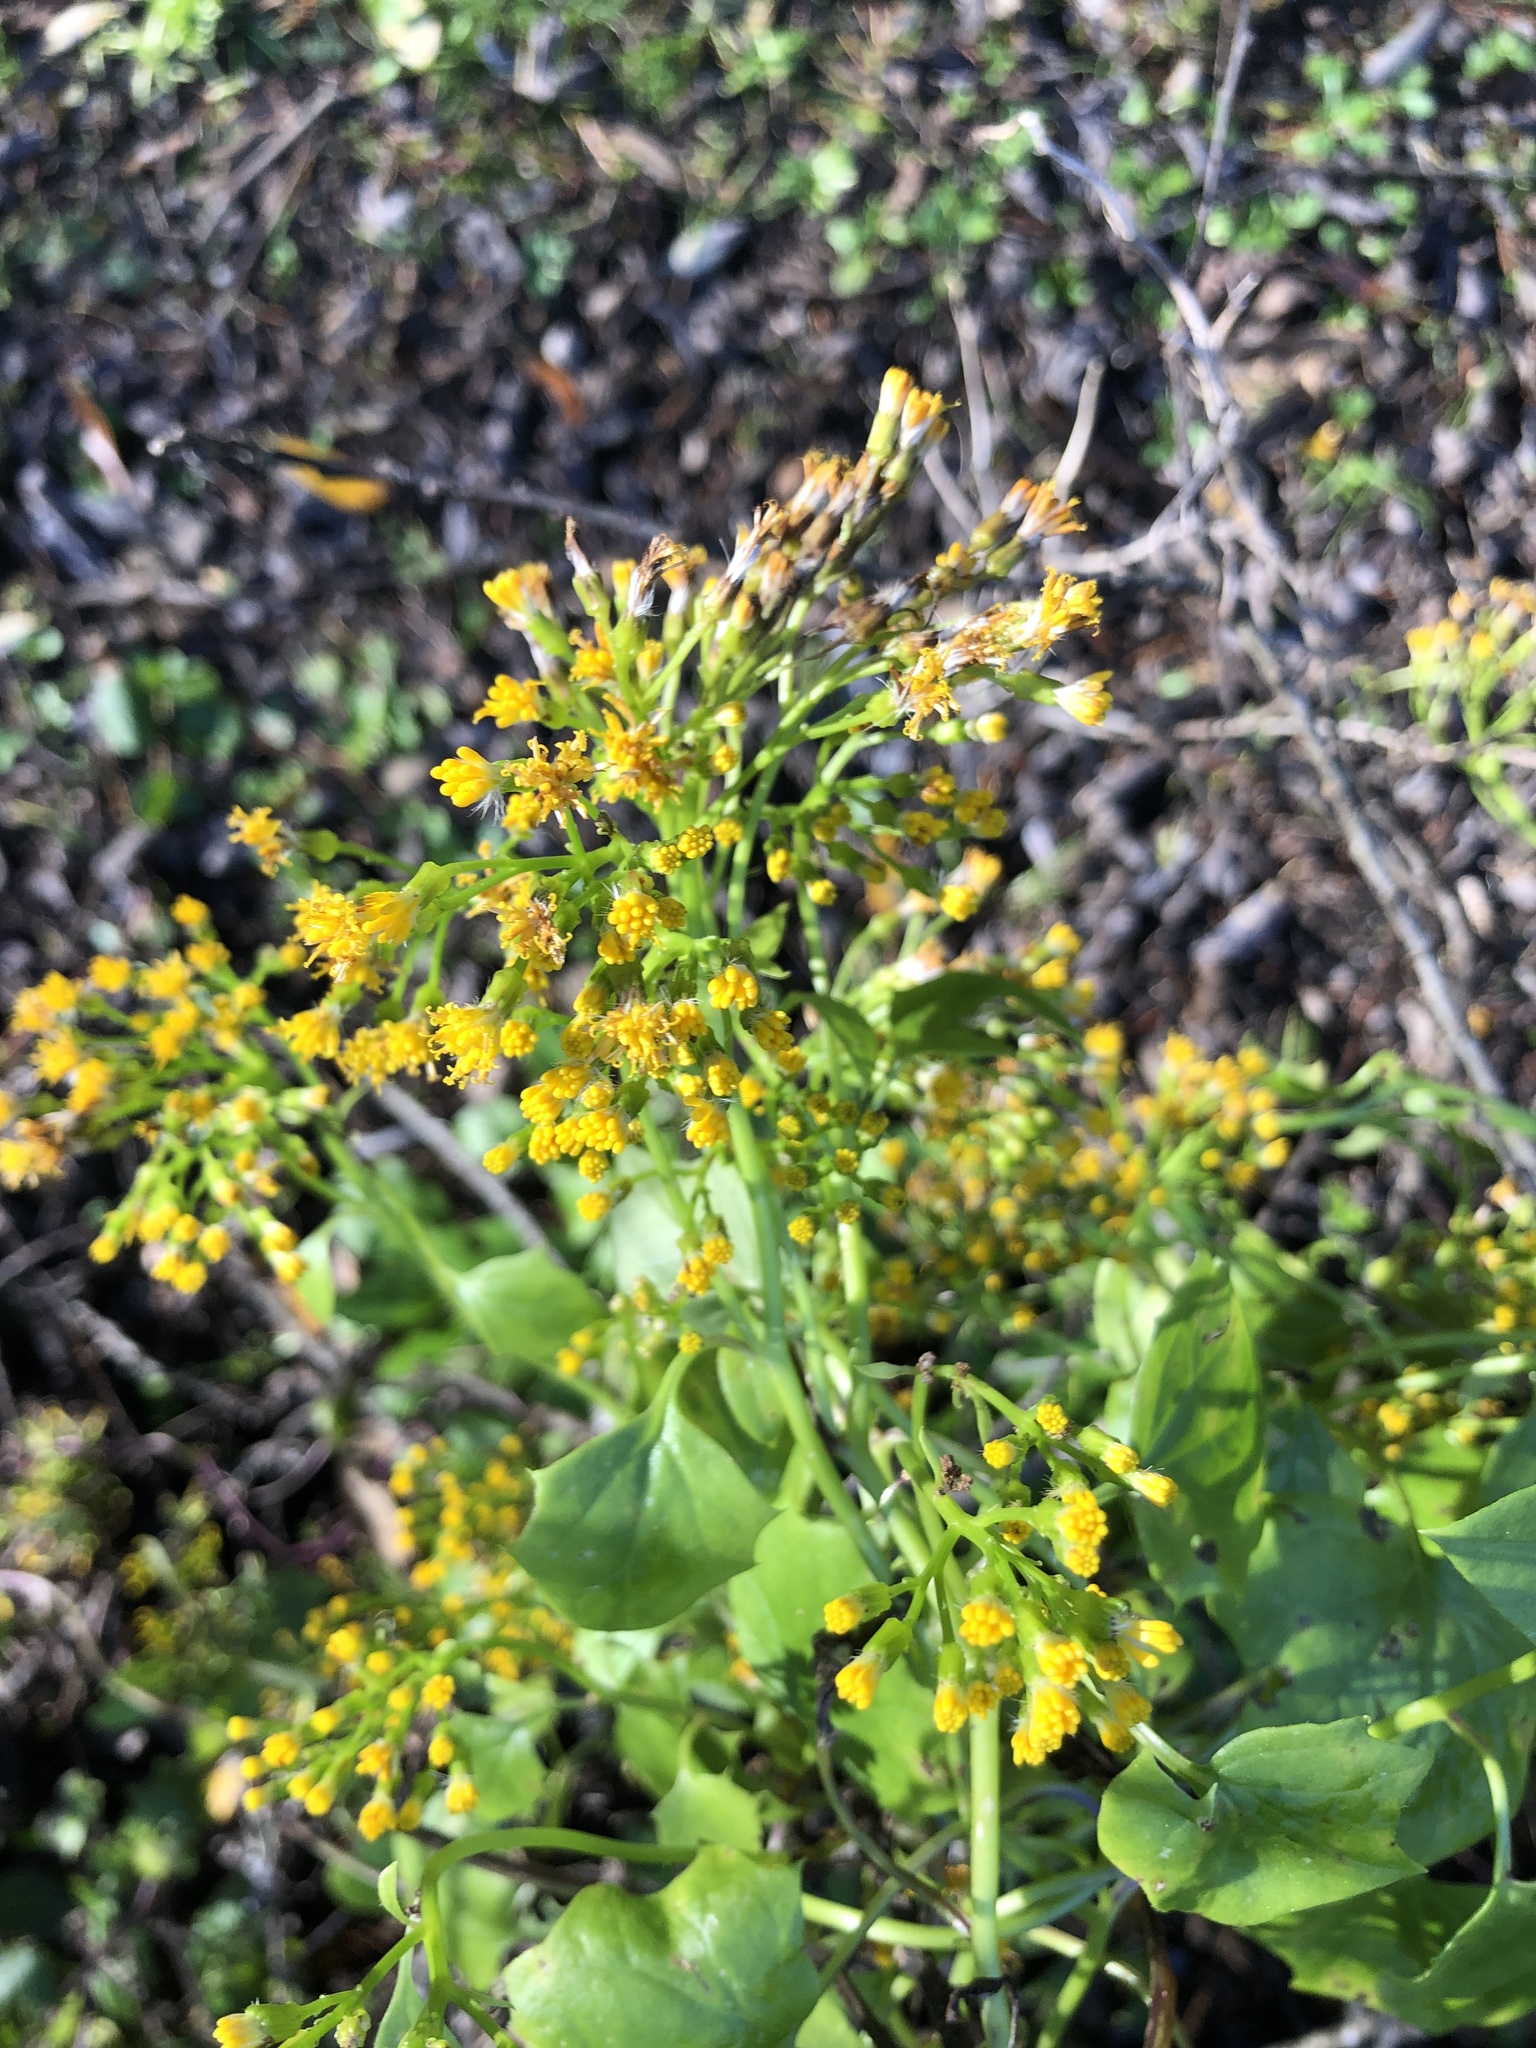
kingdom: Plantae
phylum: Tracheophyta
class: Magnoliopsida
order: Asterales
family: Asteraceae
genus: Delairea
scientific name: Delairea odorata
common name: Cape-ivy
